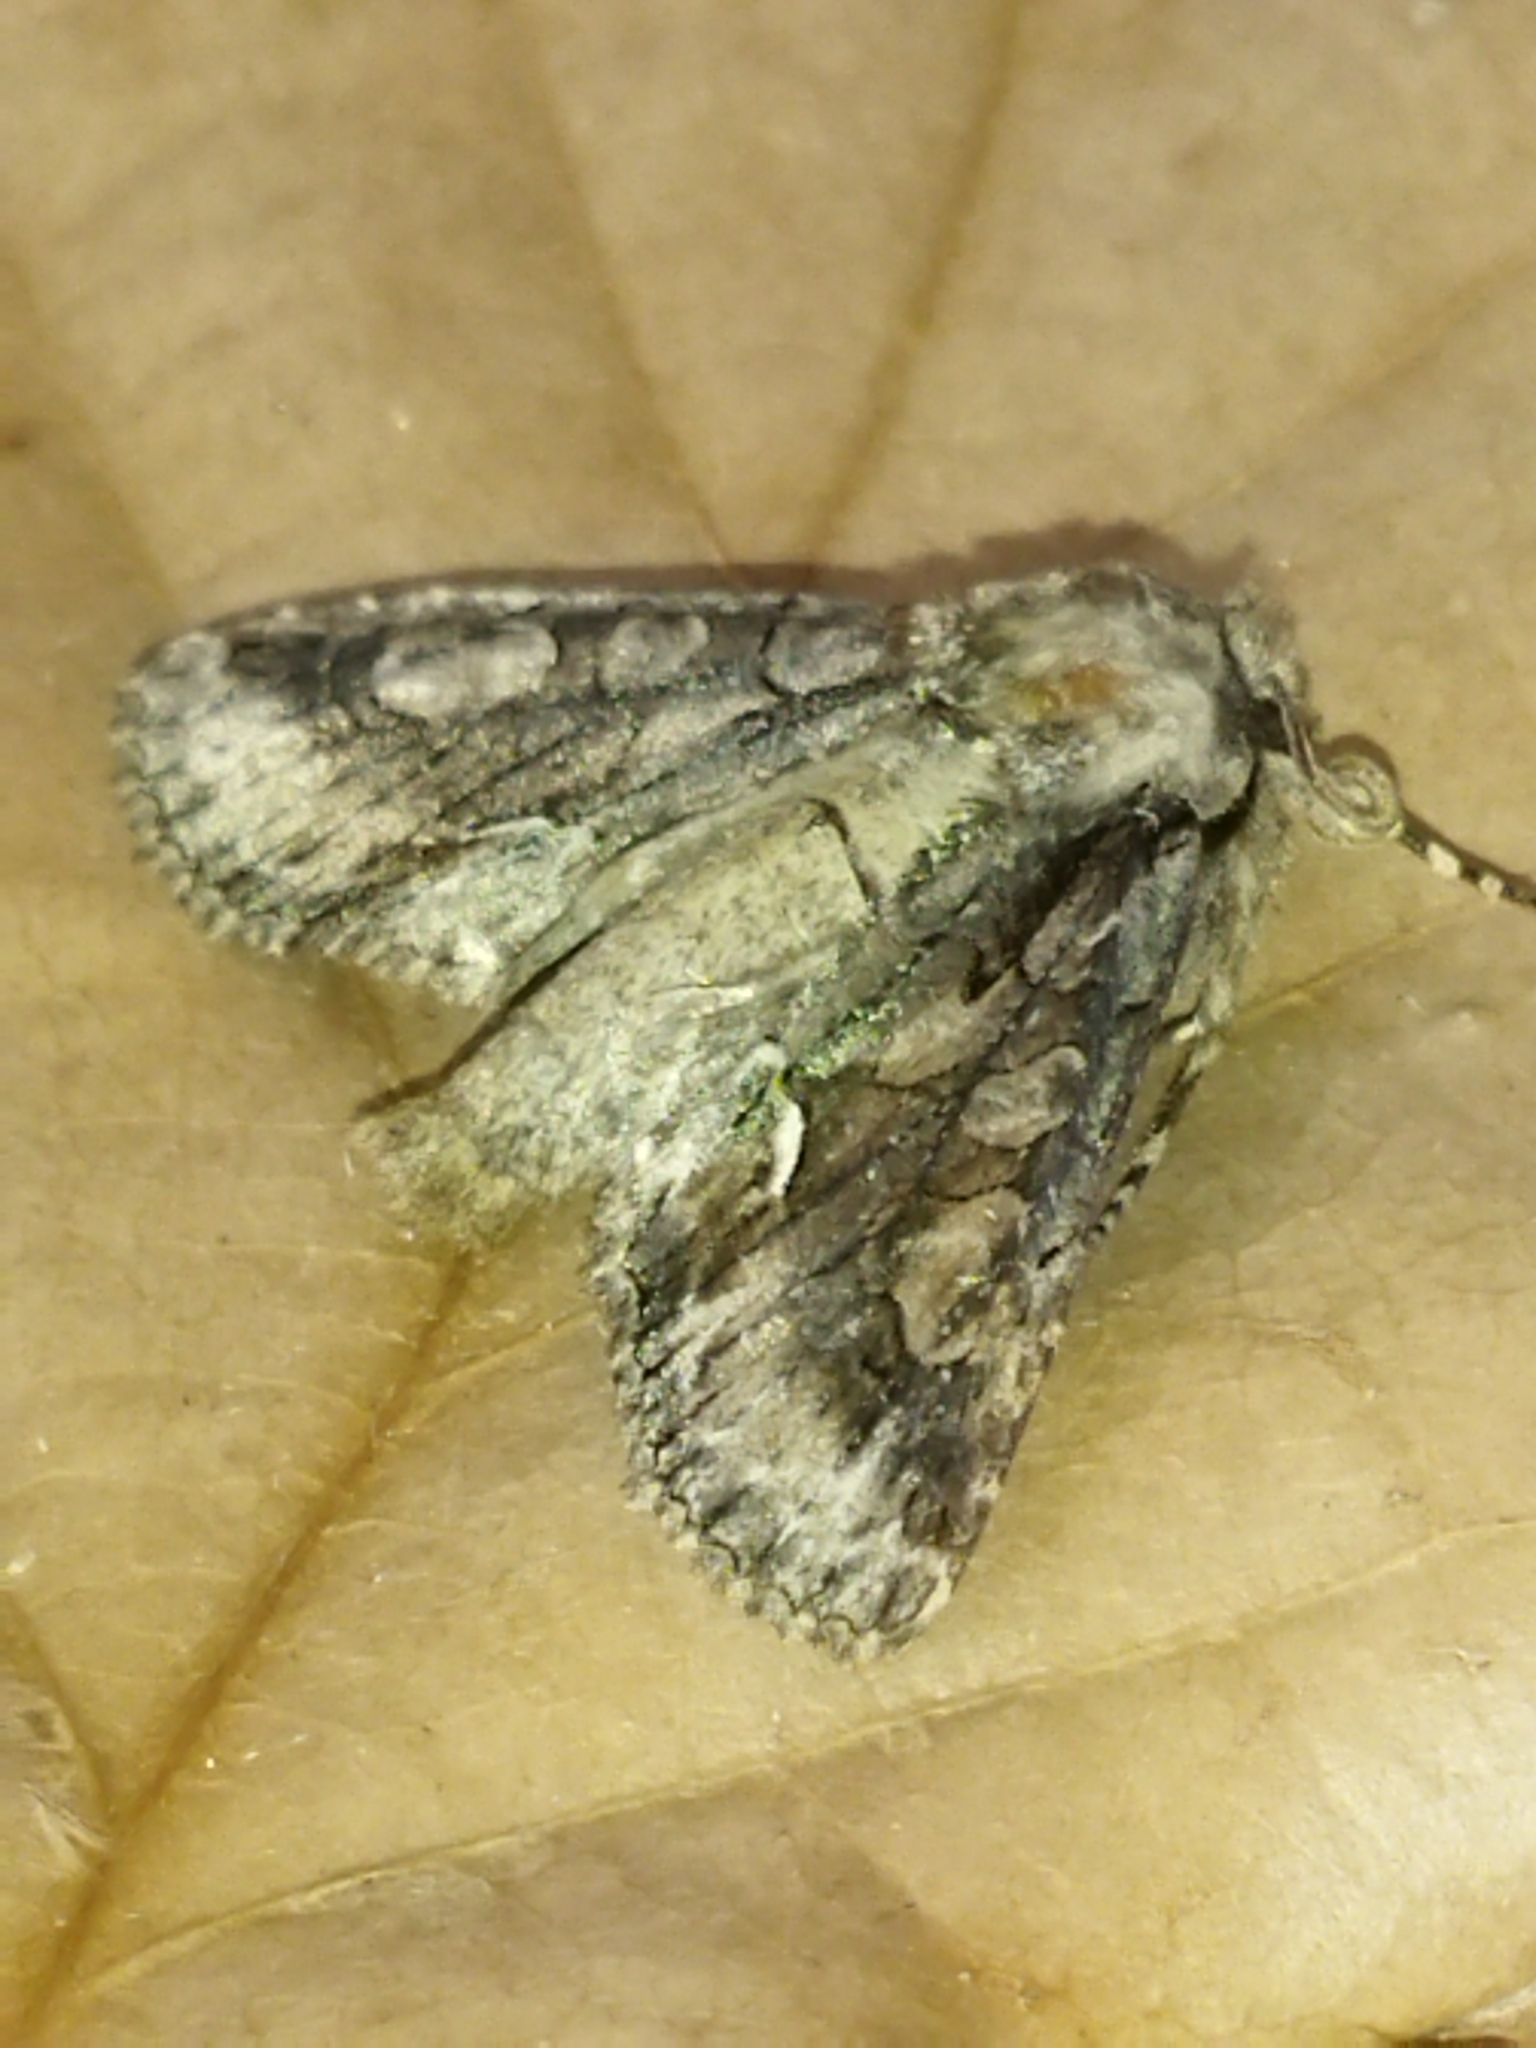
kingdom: Animalia
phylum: Arthropoda
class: Insecta
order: Lepidoptera
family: Noctuidae
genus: Allophyes
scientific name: Allophyes oxyacanthae
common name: Green-brindled crescent
